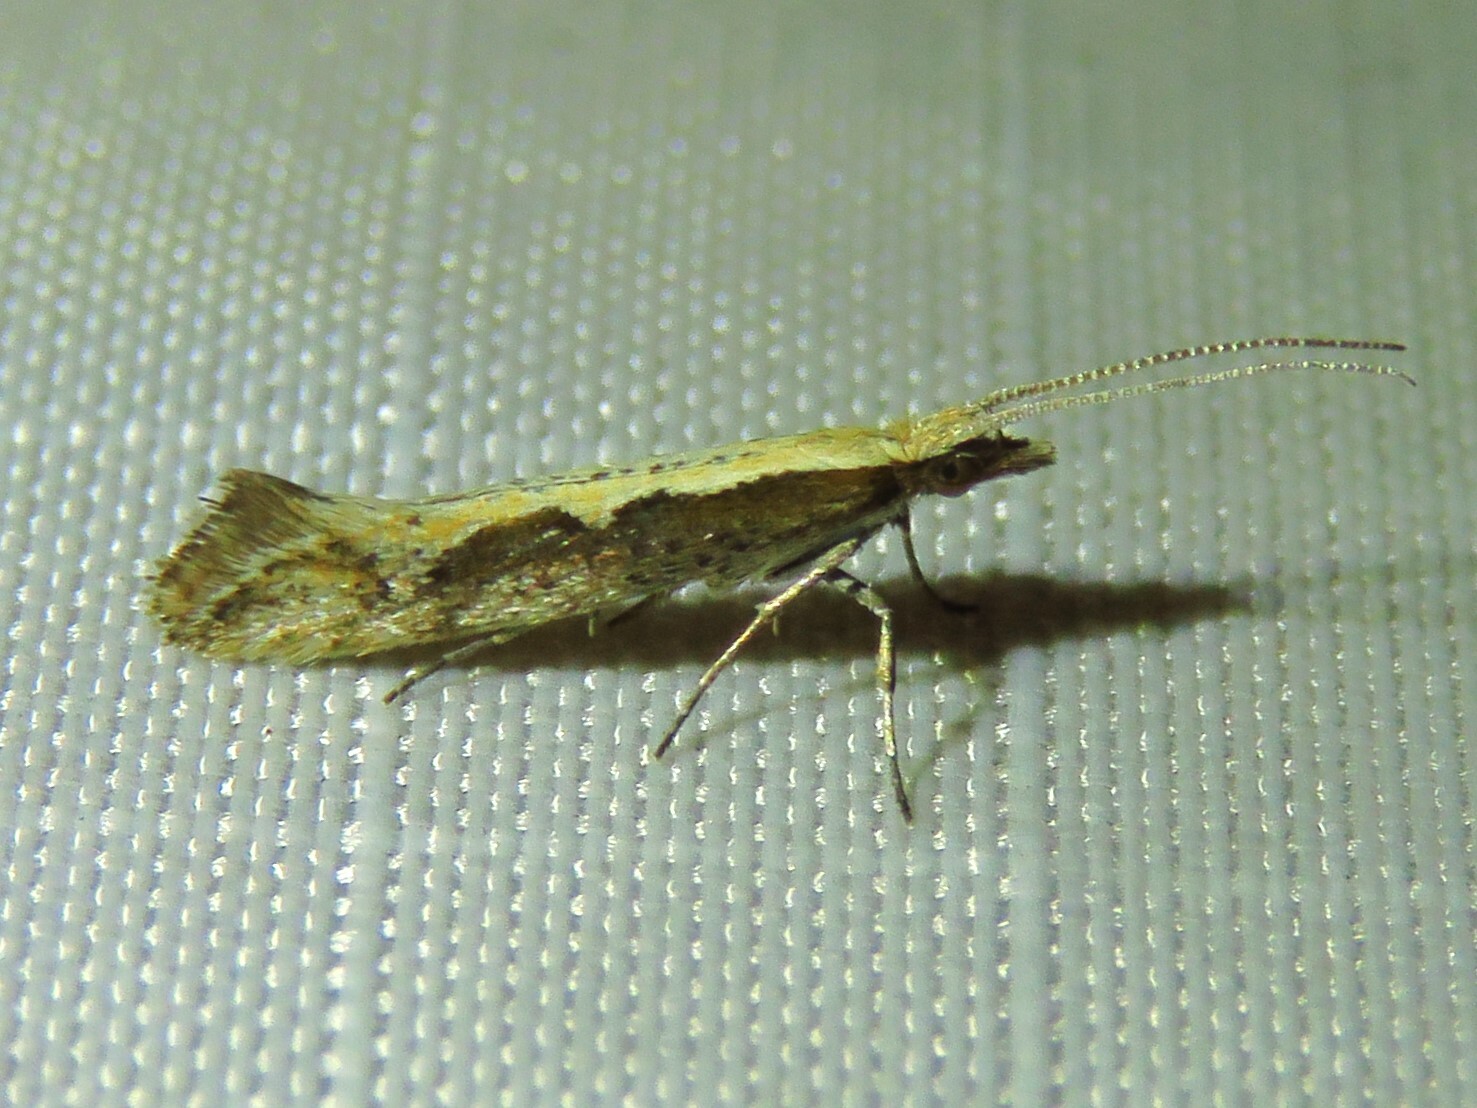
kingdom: Animalia
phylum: Arthropoda
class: Insecta
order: Lepidoptera
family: Plutellidae
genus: Plutella
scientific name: Plutella xylostella
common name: Diamond-back moth
